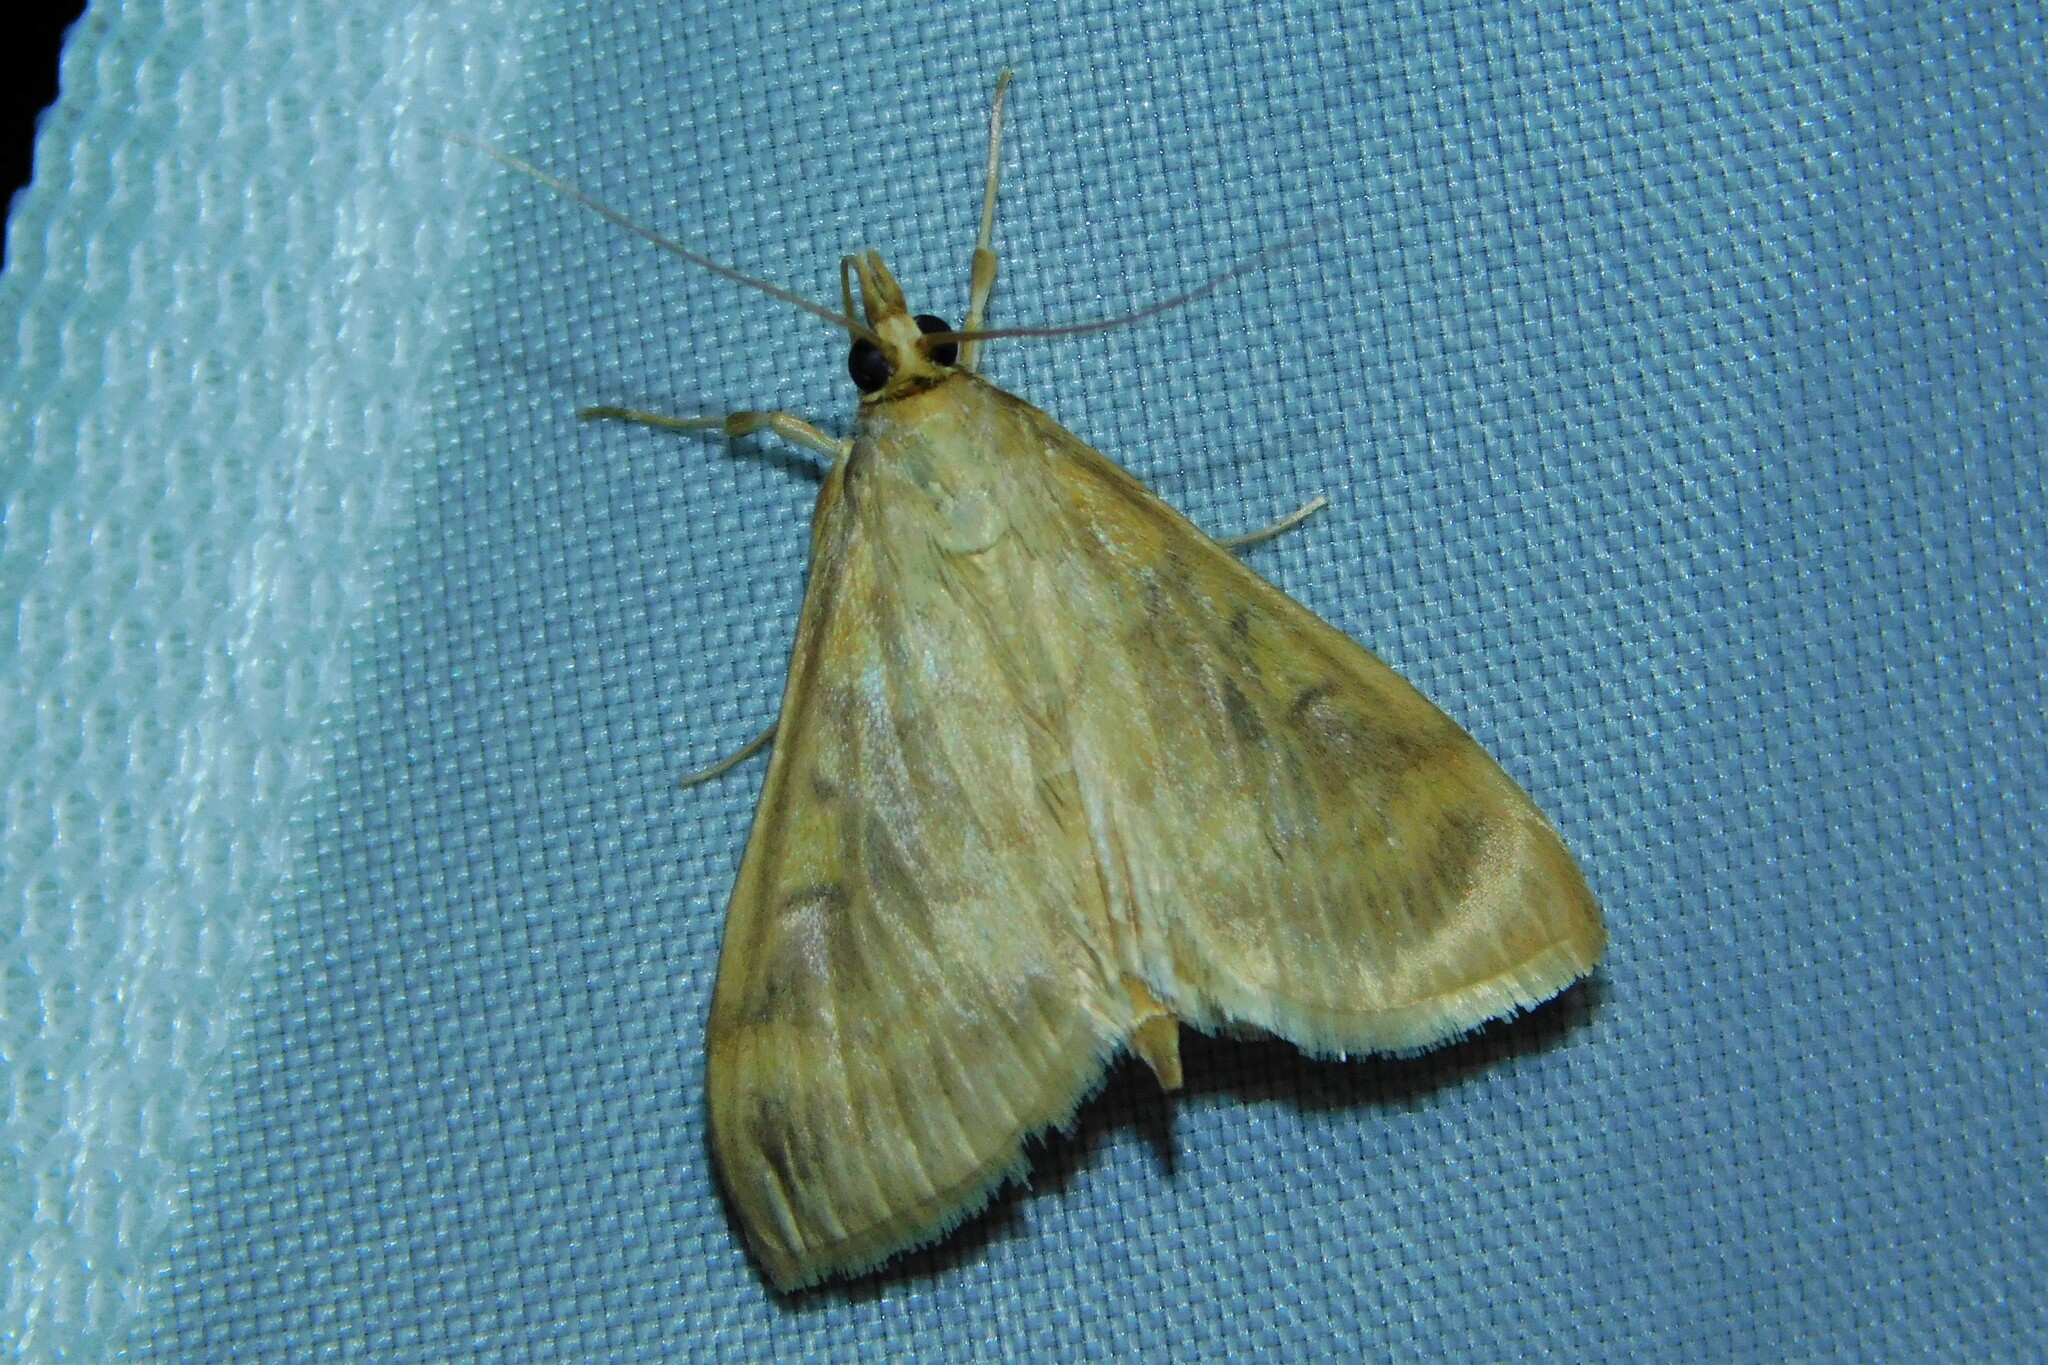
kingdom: Animalia
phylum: Arthropoda
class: Insecta
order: Lepidoptera
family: Crambidae
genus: Ostrinia
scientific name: Ostrinia nubilalis
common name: European corn borer
